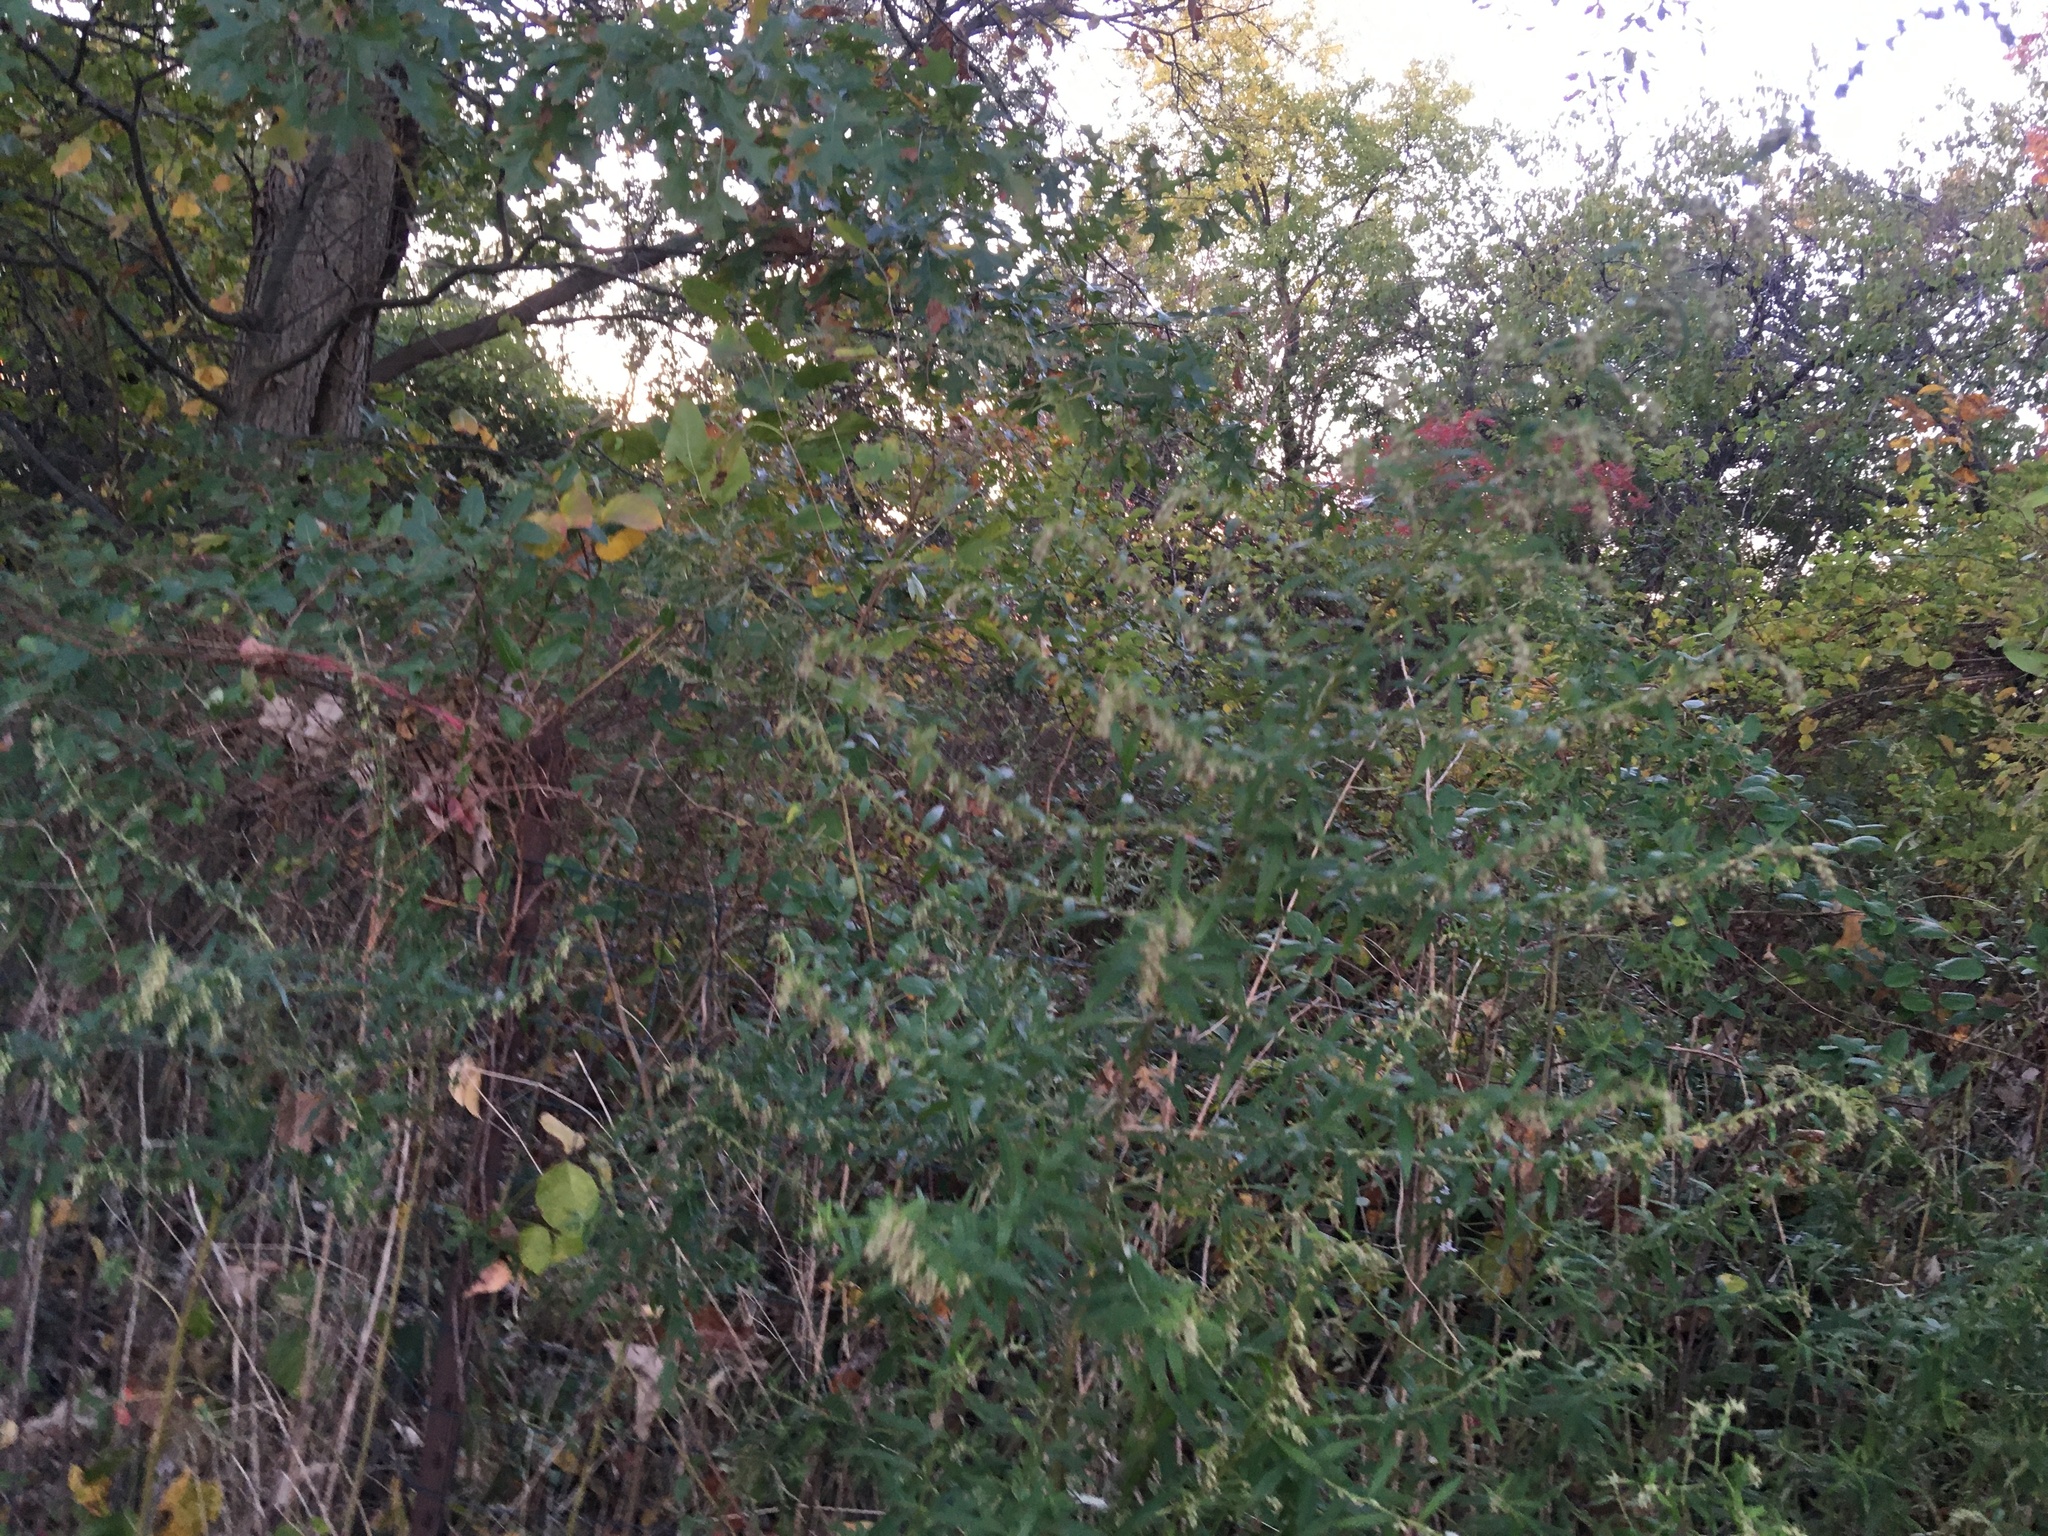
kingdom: Plantae
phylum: Tracheophyta
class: Magnoliopsida
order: Asterales
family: Asteraceae
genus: Artemisia
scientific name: Artemisia vulgaris
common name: Mugwort
